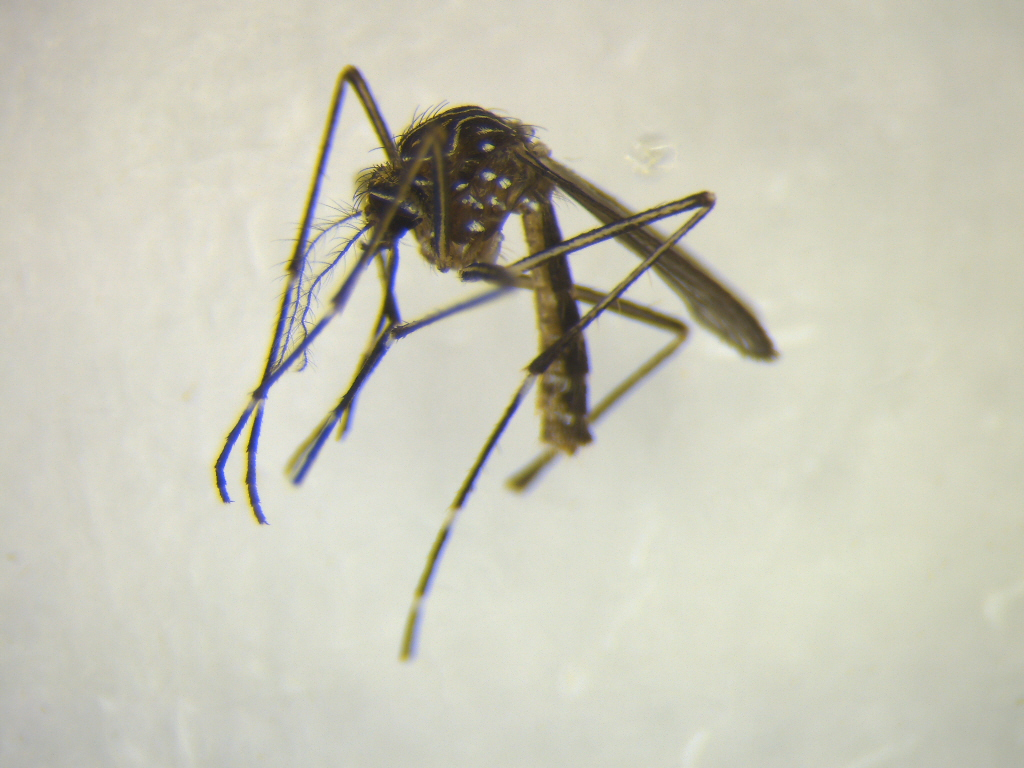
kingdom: Animalia
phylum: Arthropoda
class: Insecta
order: Diptera
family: Culicidae
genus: Aedes
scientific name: Aedes notoscriptus
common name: Australian backyard mosquito
